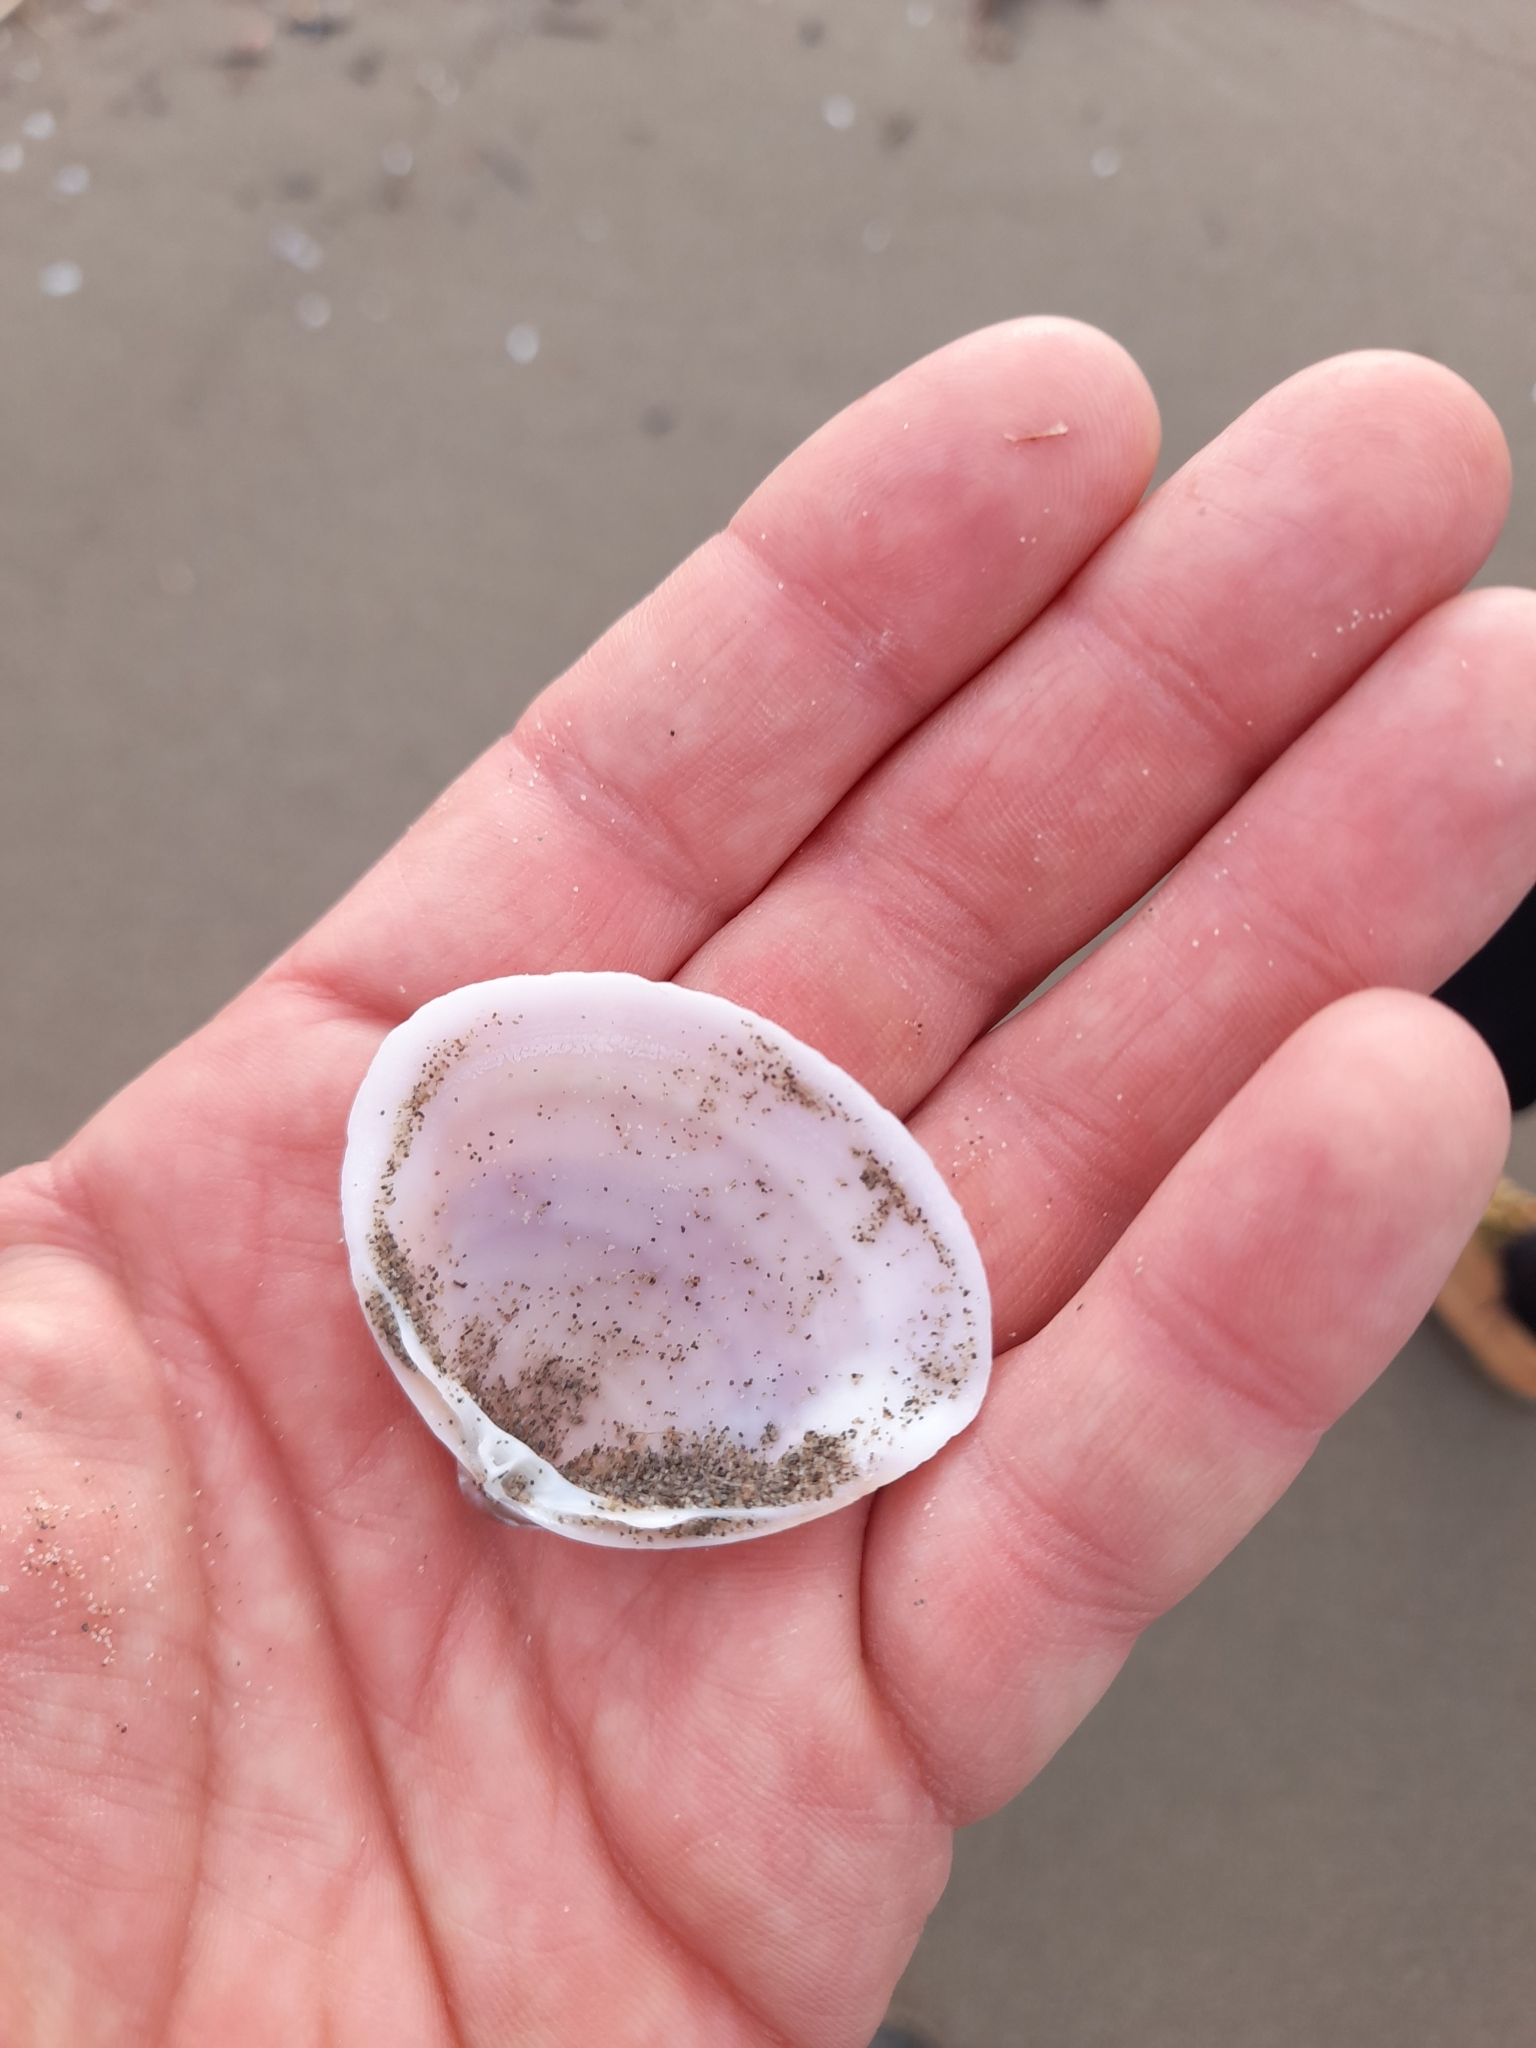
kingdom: Animalia
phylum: Mollusca
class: Bivalvia
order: Venerida
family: Mactridae
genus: Mactra
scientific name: Mactra stultorum
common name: Rayed trough shell
